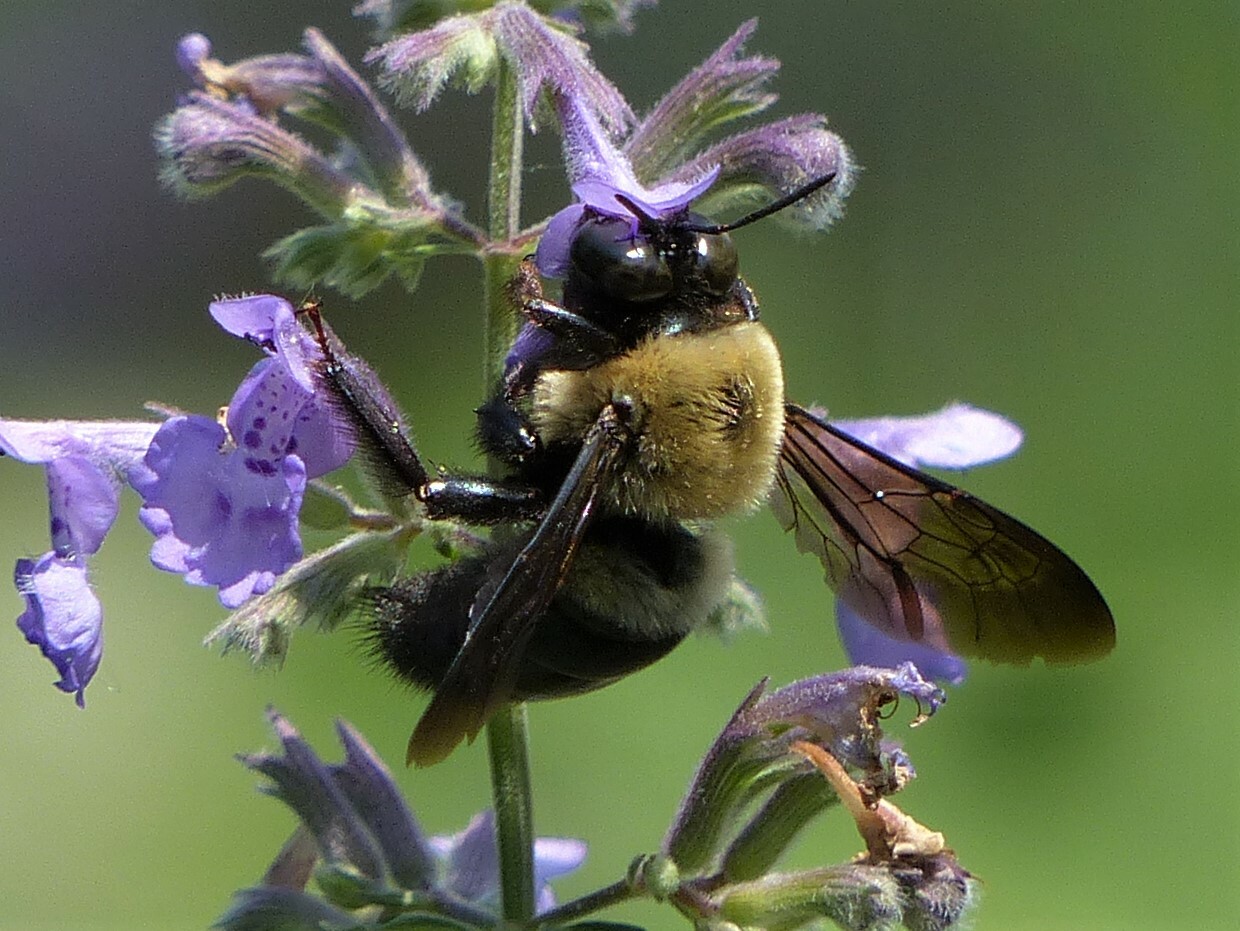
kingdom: Animalia
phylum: Arthropoda
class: Insecta
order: Hymenoptera
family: Apidae
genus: Xylocopa
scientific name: Xylocopa virginica
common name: Carpenter bee
